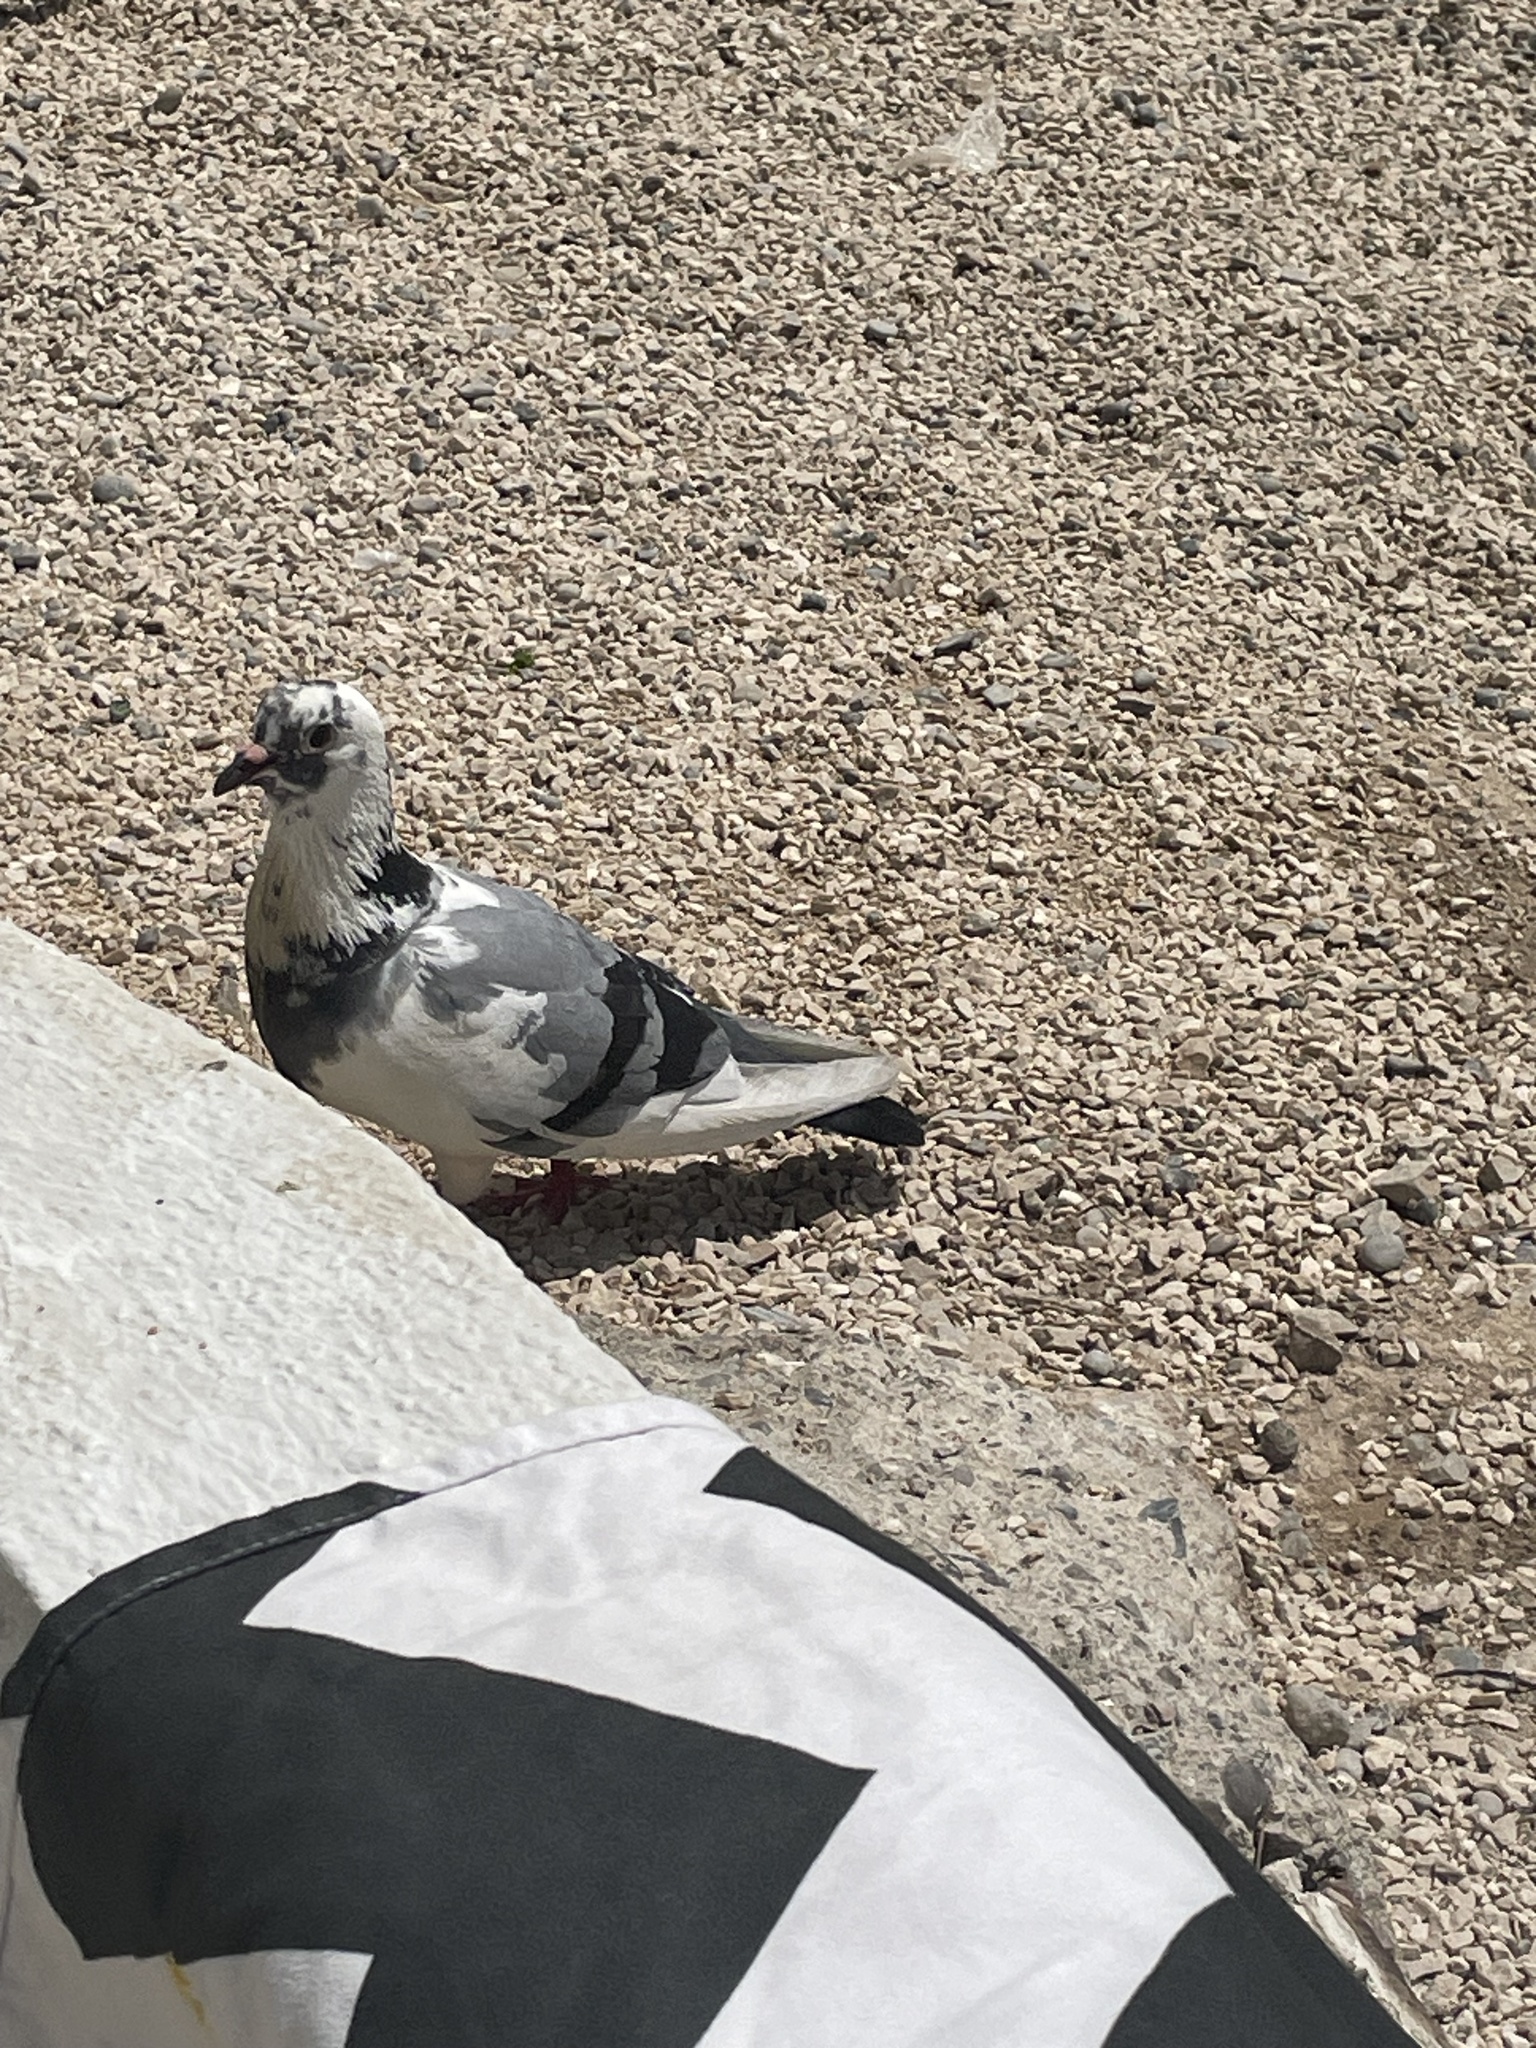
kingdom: Animalia
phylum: Chordata
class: Aves
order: Columbiformes
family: Columbidae
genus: Columba
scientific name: Columba livia
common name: Rock pigeon
